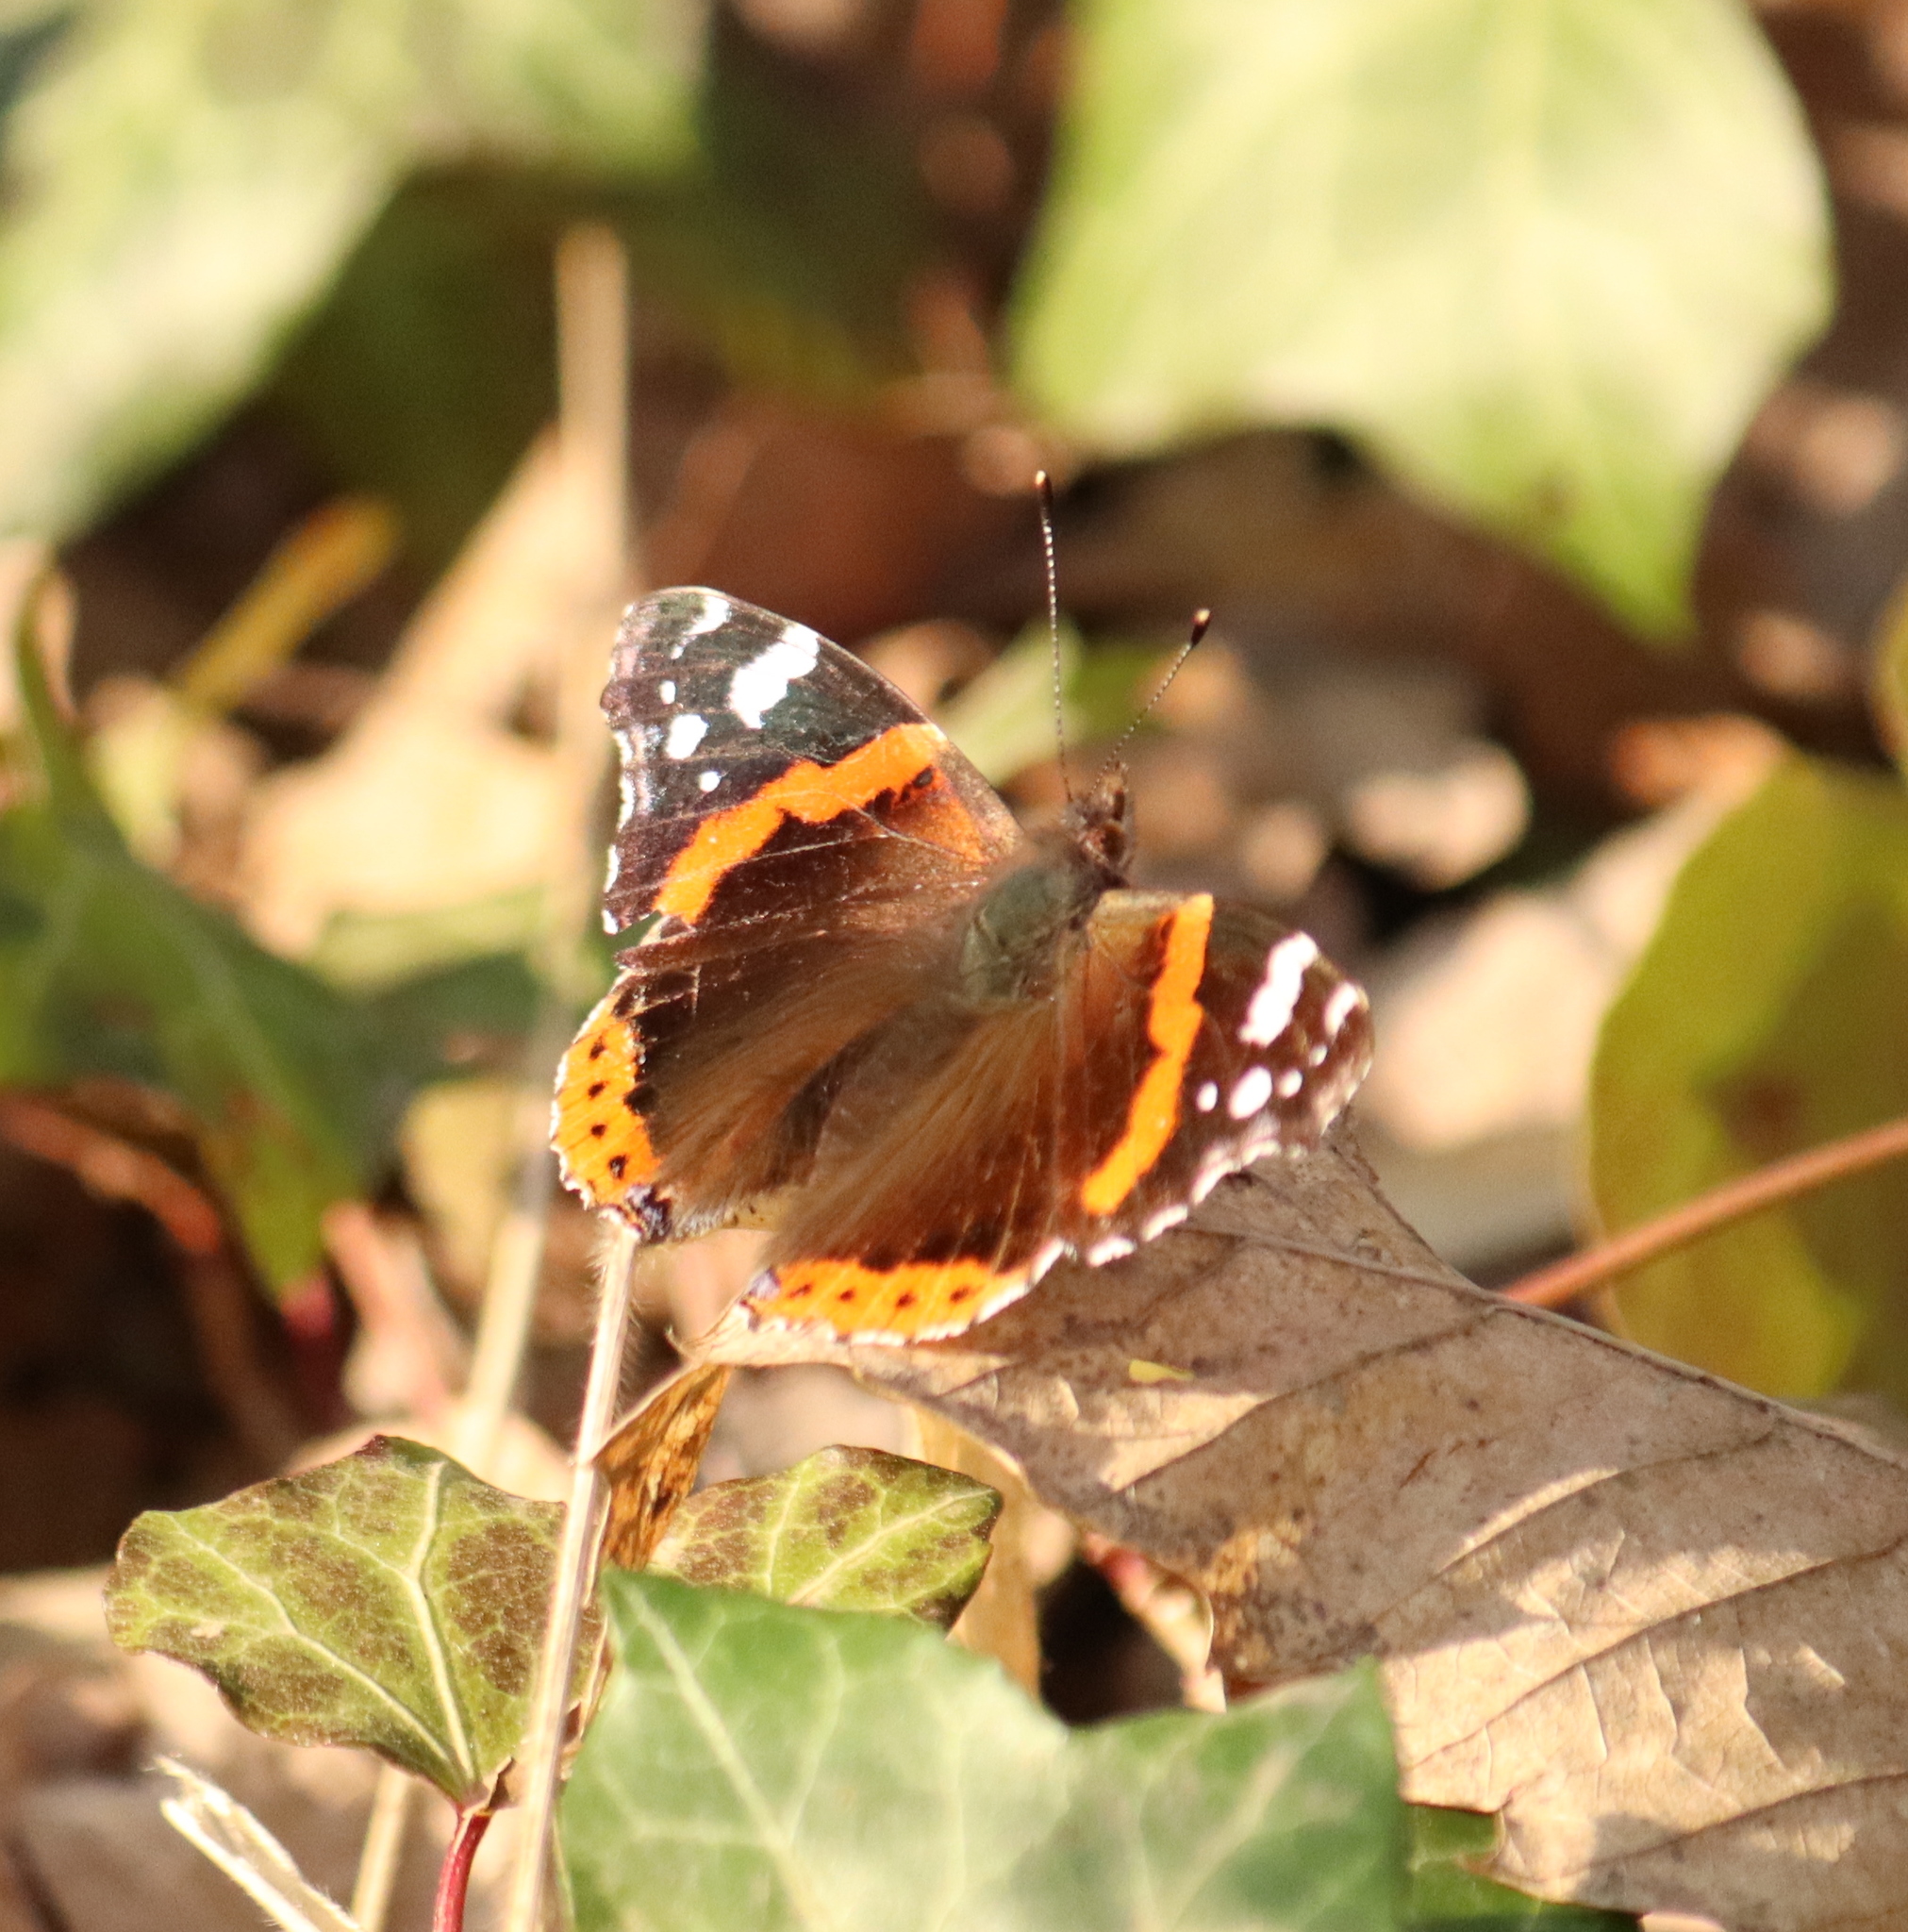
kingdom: Animalia
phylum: Arthropoda
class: Insecta
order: Lepidoptera
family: Nymphalidae
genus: Vanessa
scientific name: Vanessa atalanta
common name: Red admiral
